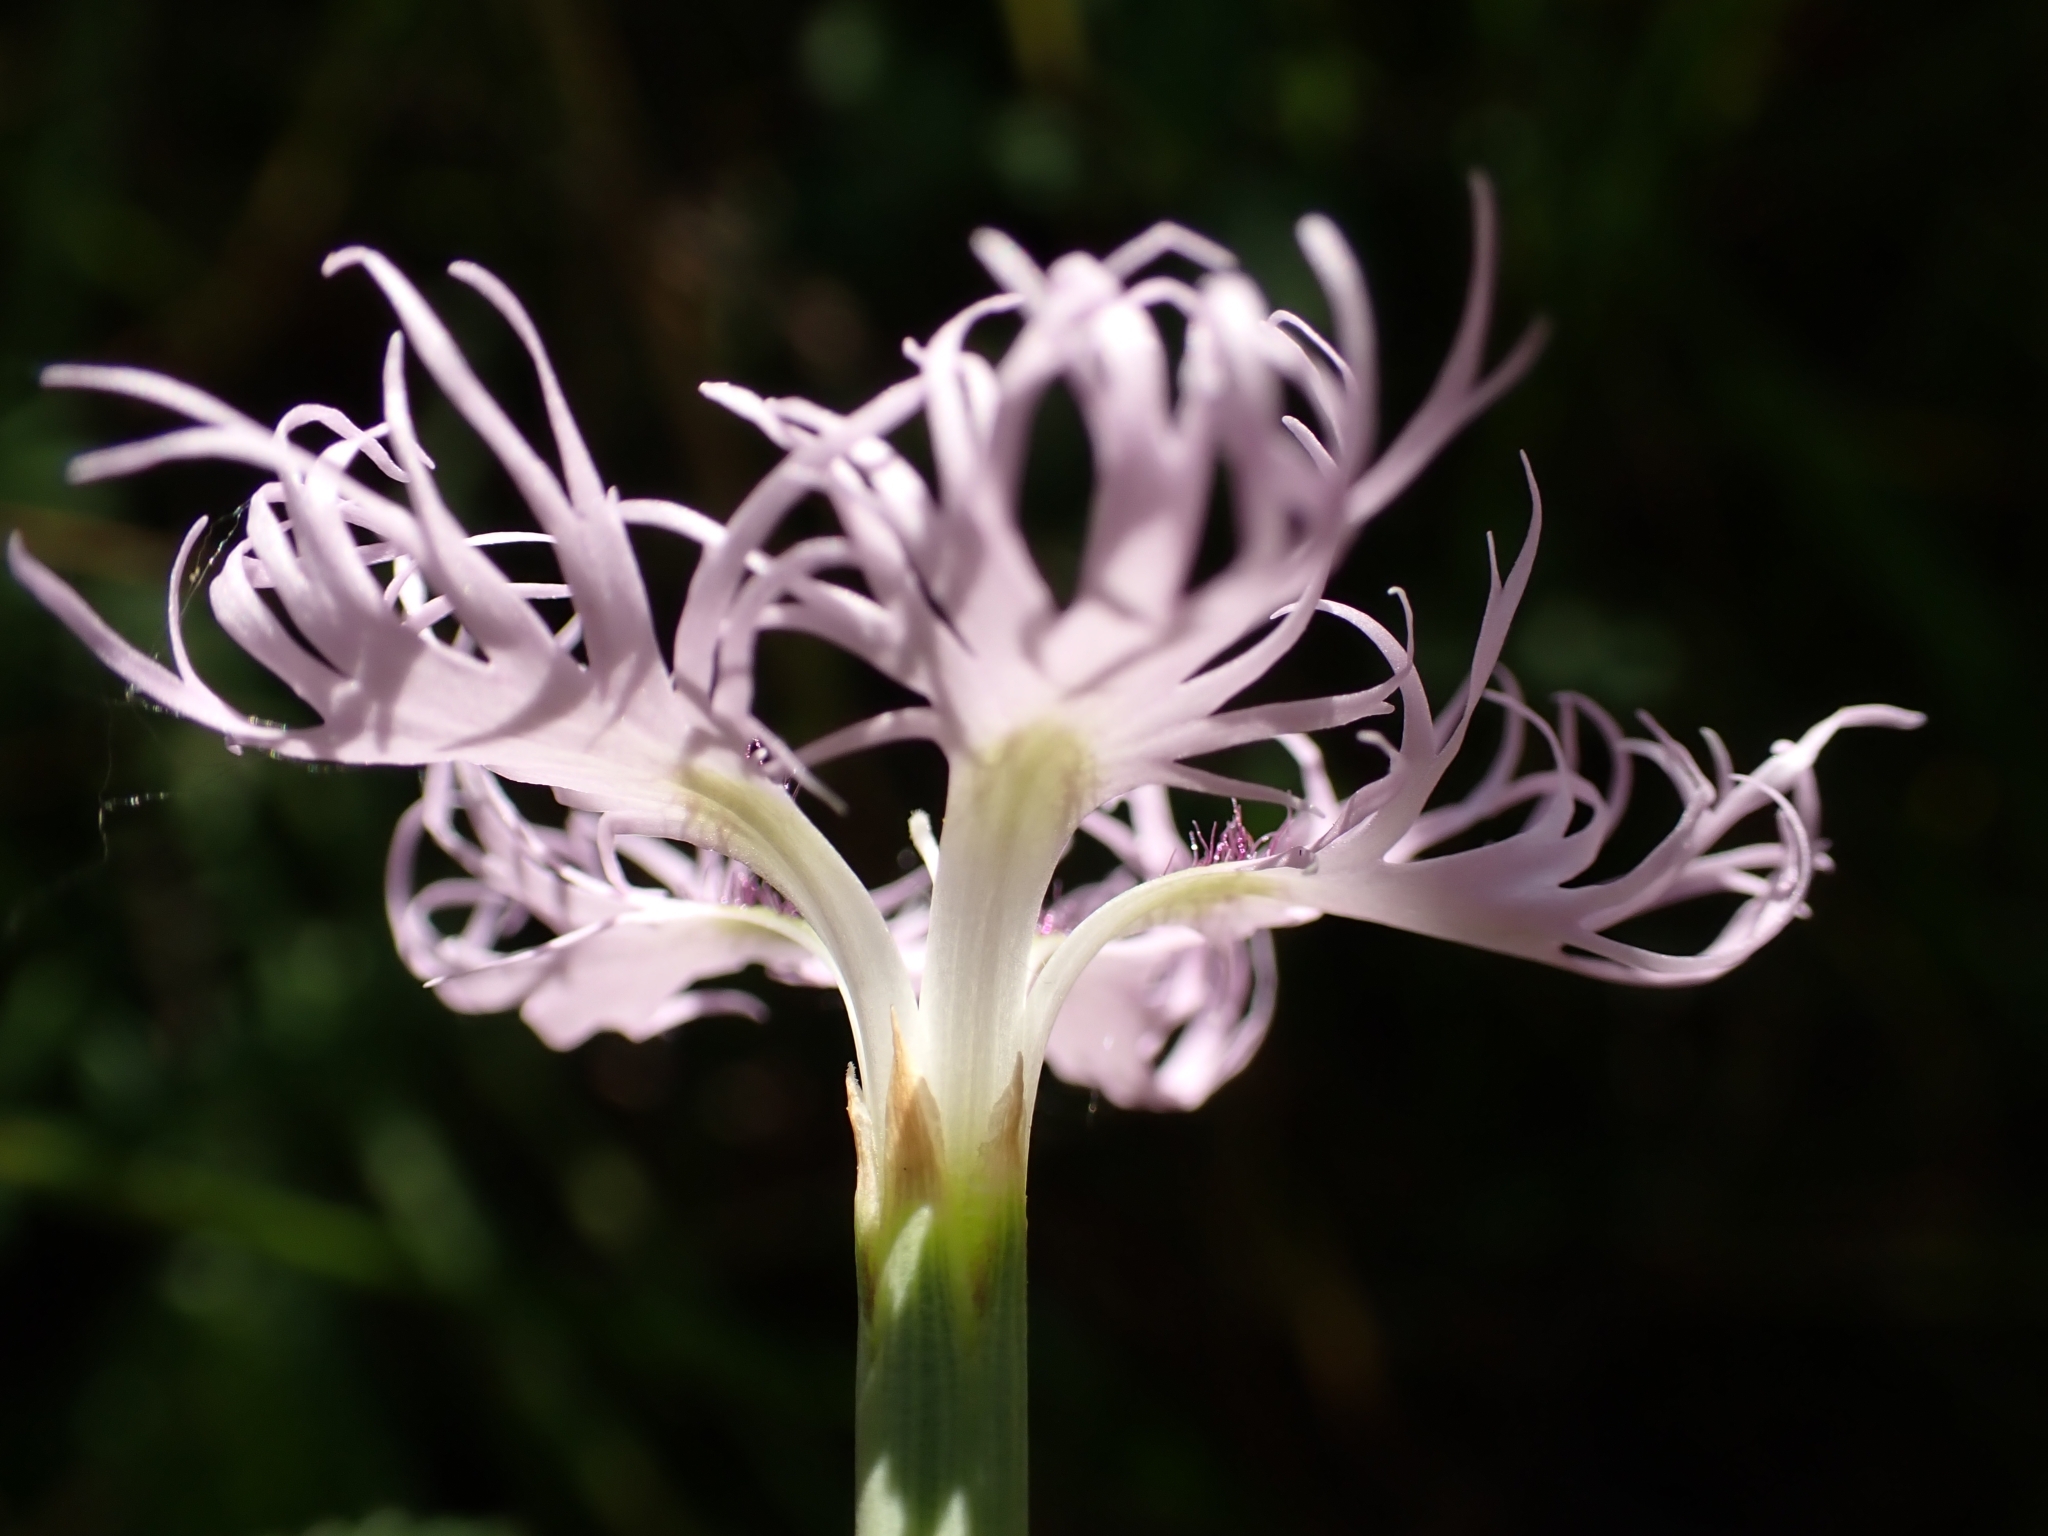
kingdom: Plantae
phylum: Tracheophyta
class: Magnoliopsida
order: Caryophyllales
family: Caryophyllaceae
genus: Dianthus
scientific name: Dianthus superbus
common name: Fringed pink
